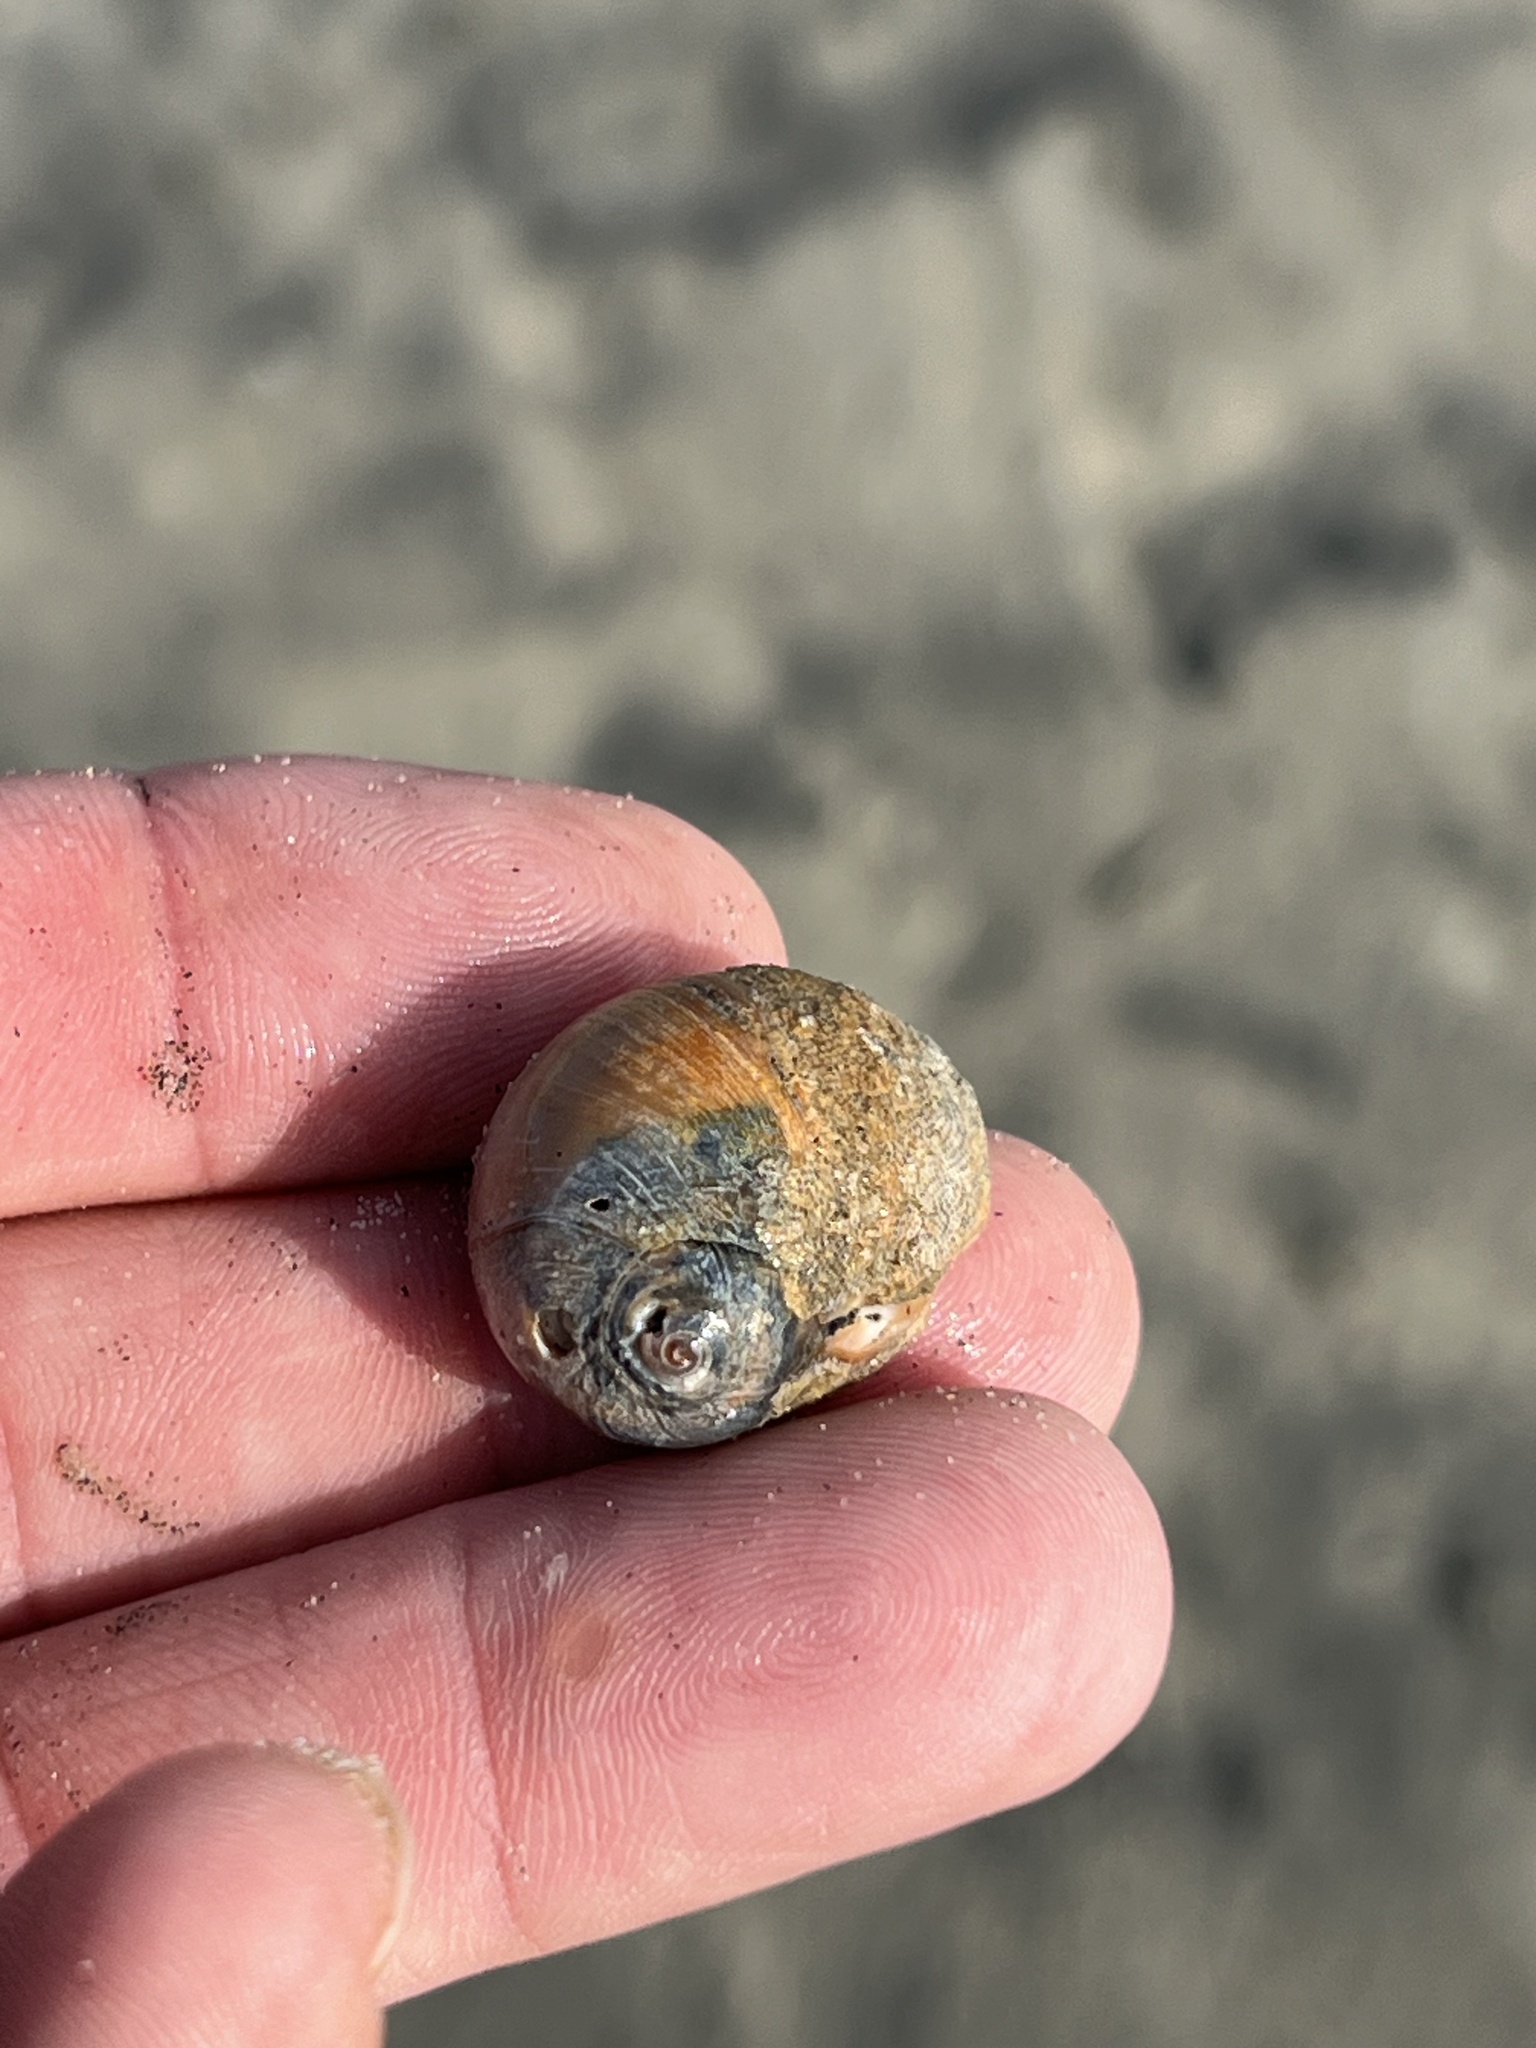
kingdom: Animalia
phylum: Mollusca
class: Gastropoda
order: Littorinimorpha
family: Naticidae
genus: Glossaulax
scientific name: Glossaulax reclusiana
